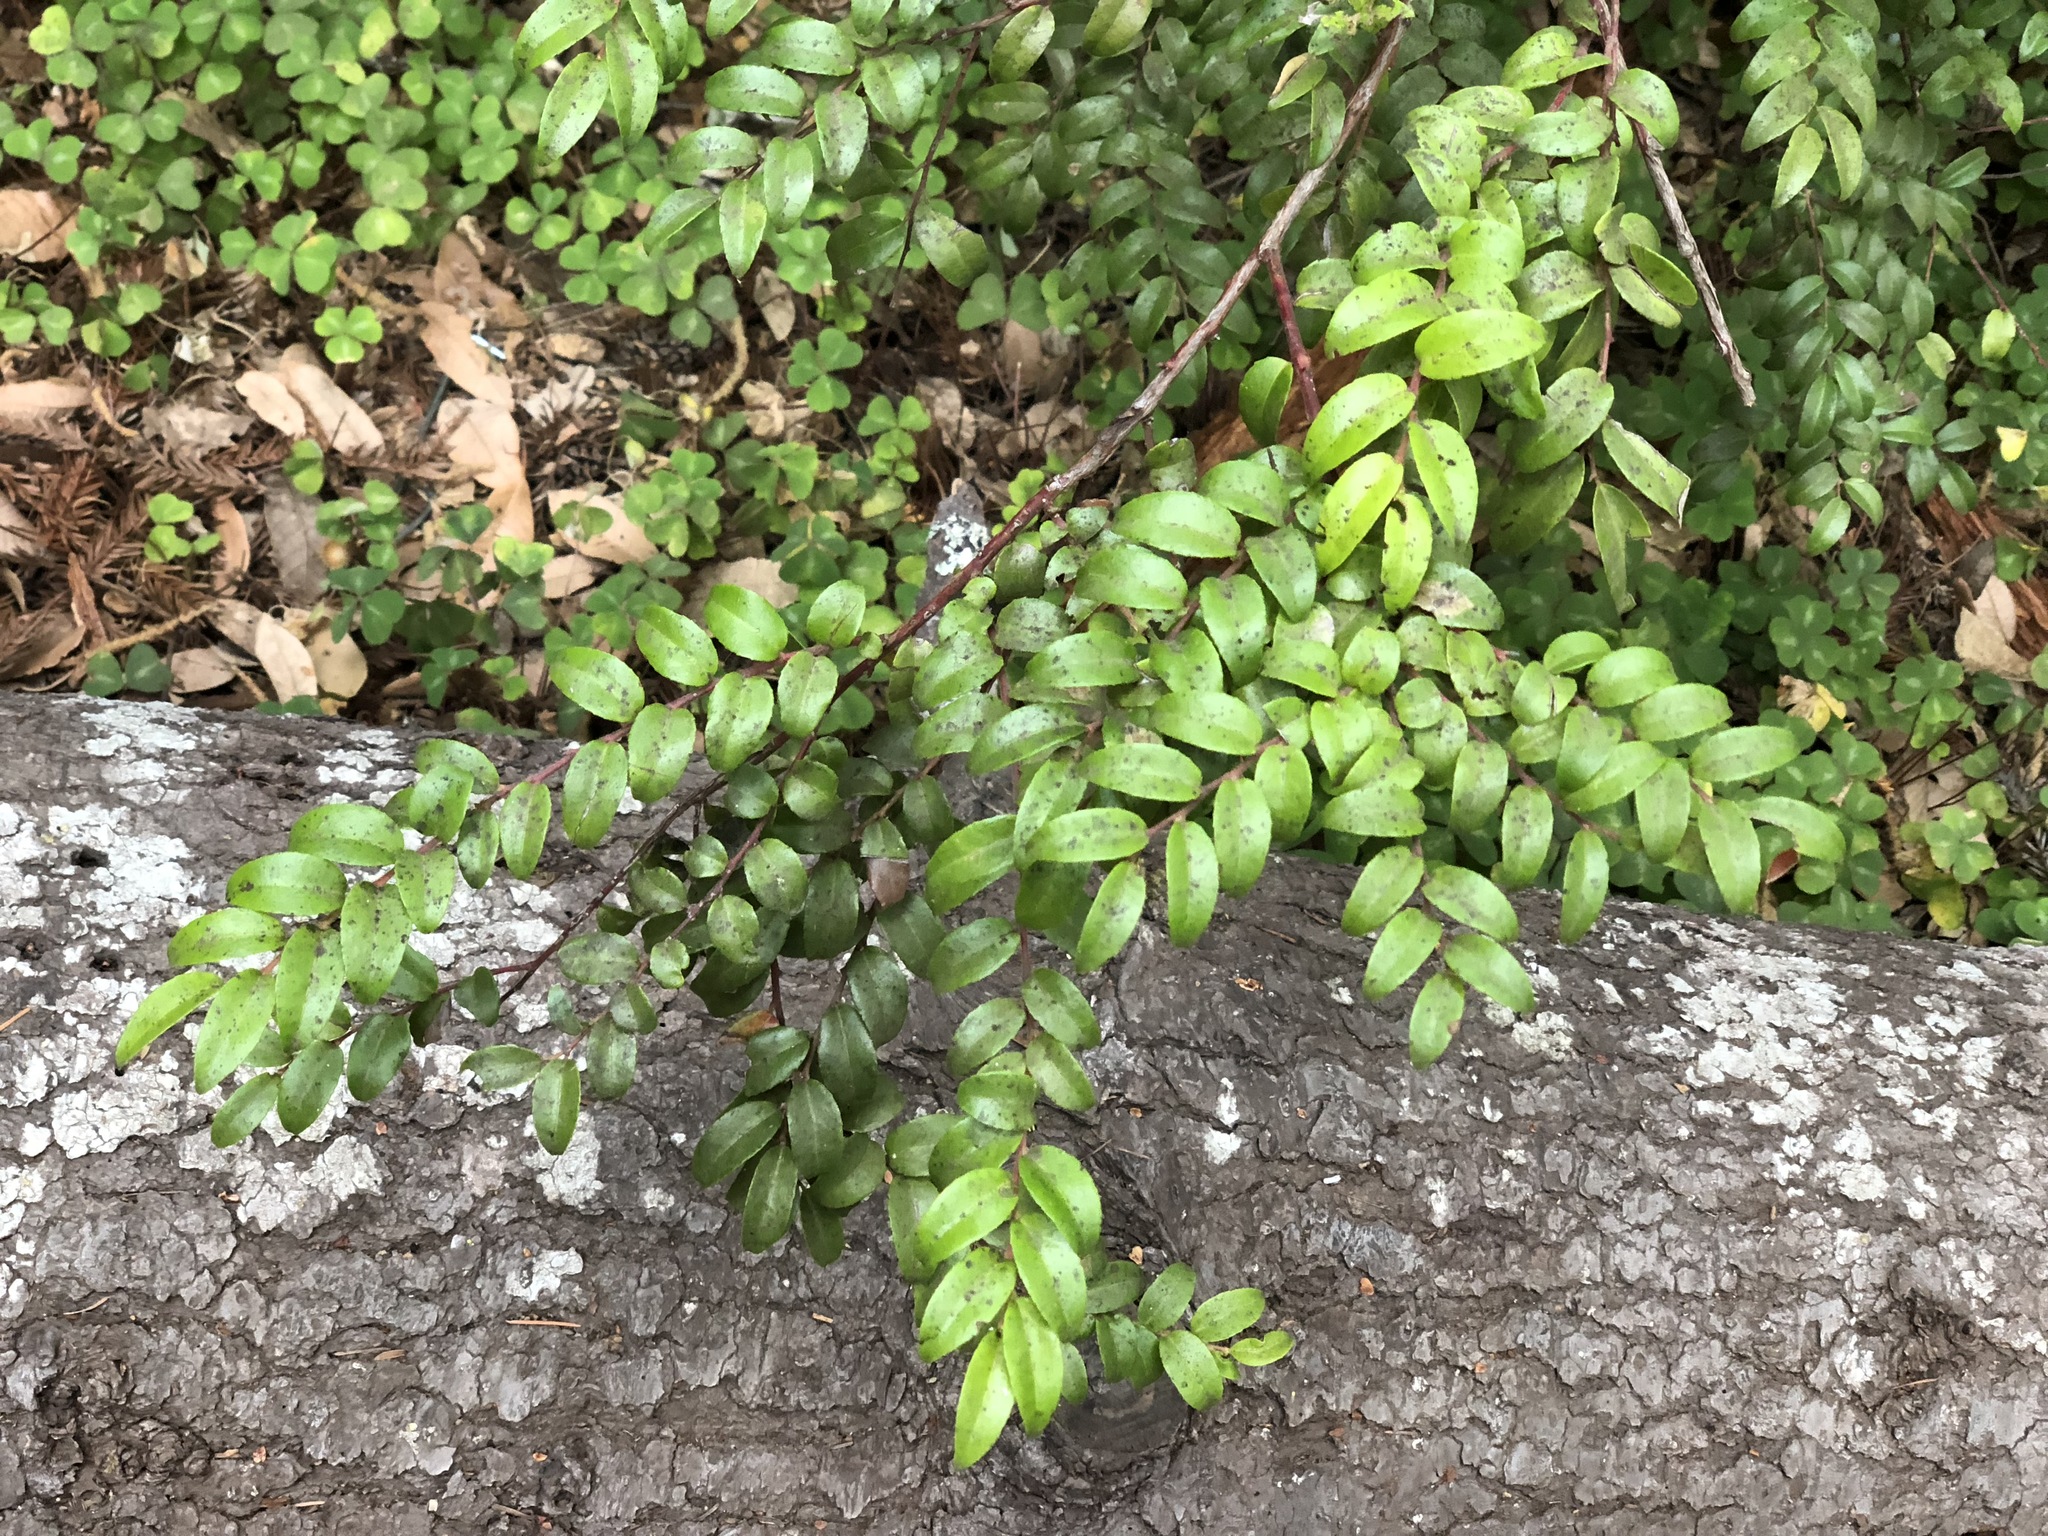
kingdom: Plantae
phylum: Tracheophyta
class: Magnoliopsida
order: Ericales
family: Ericaceae
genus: Vaccinium
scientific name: Vaccinium ovatum
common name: California-huckleberry
